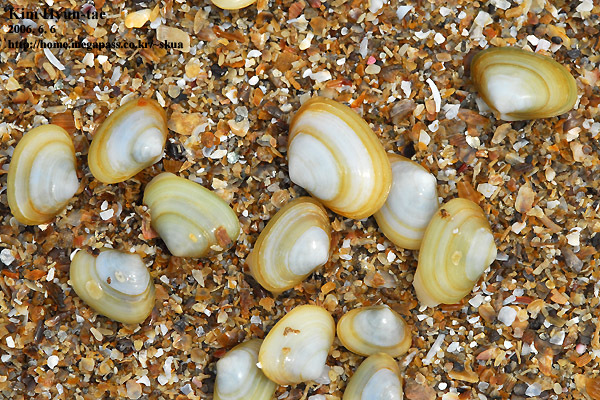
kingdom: Animalia
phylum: Mollusca
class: Bivalvia
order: Venerida
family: Mesodesmatidae
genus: Coecella
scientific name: Coecella chinensis
